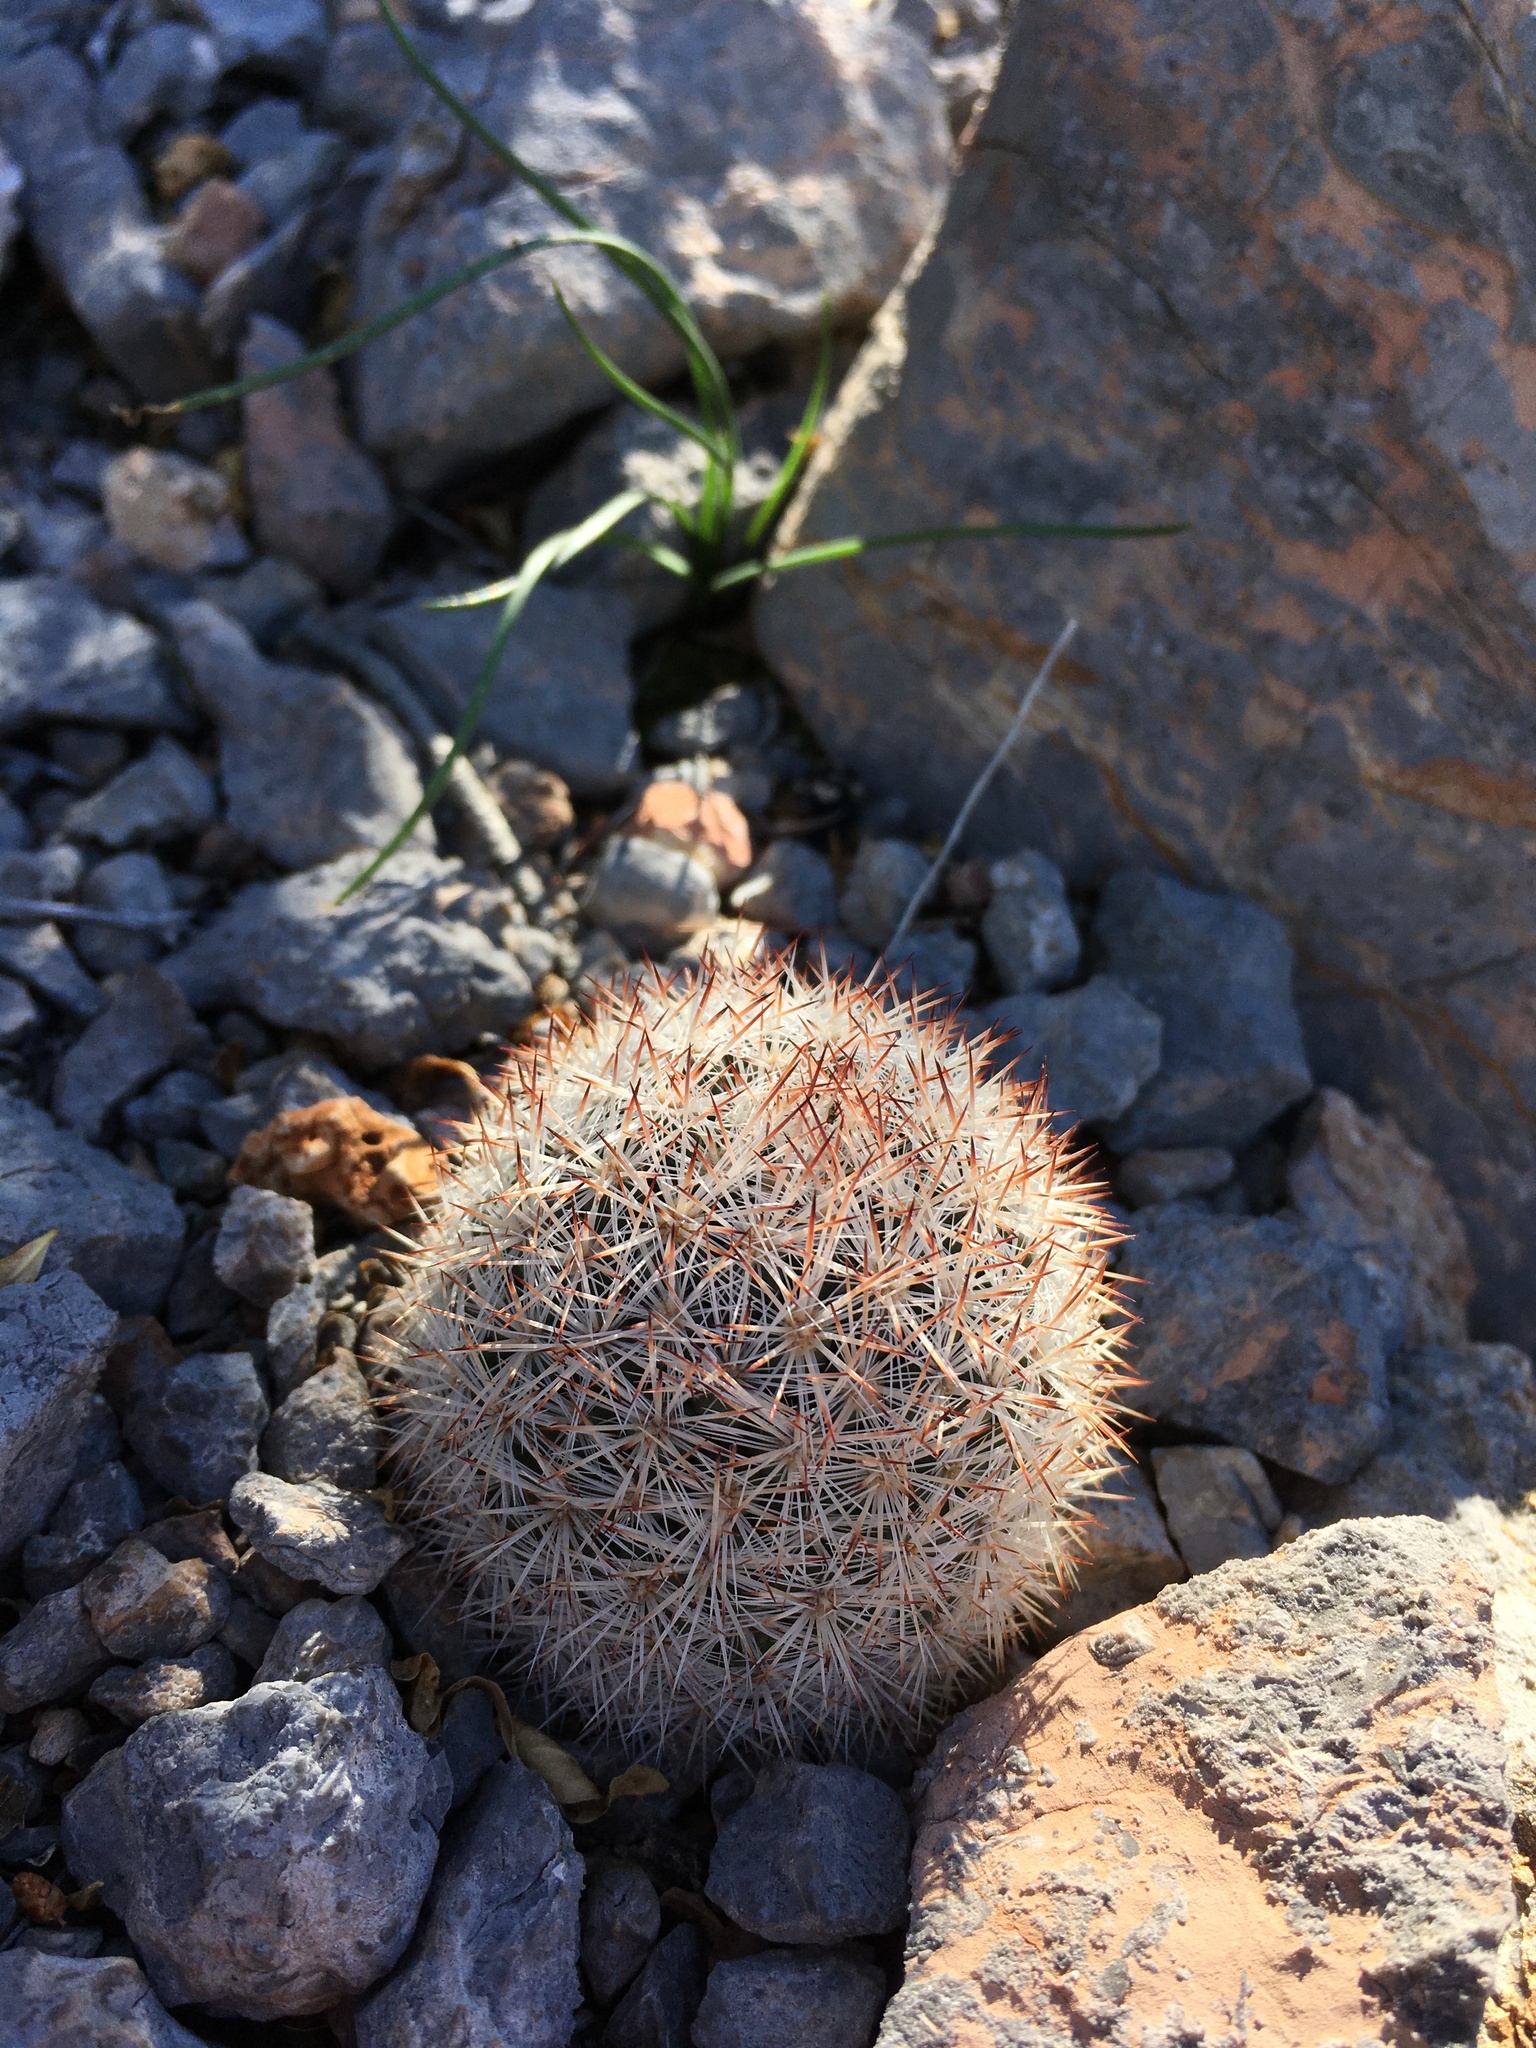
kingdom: Plantae
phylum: Tracheophyta
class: Magnoliopsida
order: Caryophyllales
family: Cactaceae
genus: Pelecyphora
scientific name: Pelecyphora sneedii
